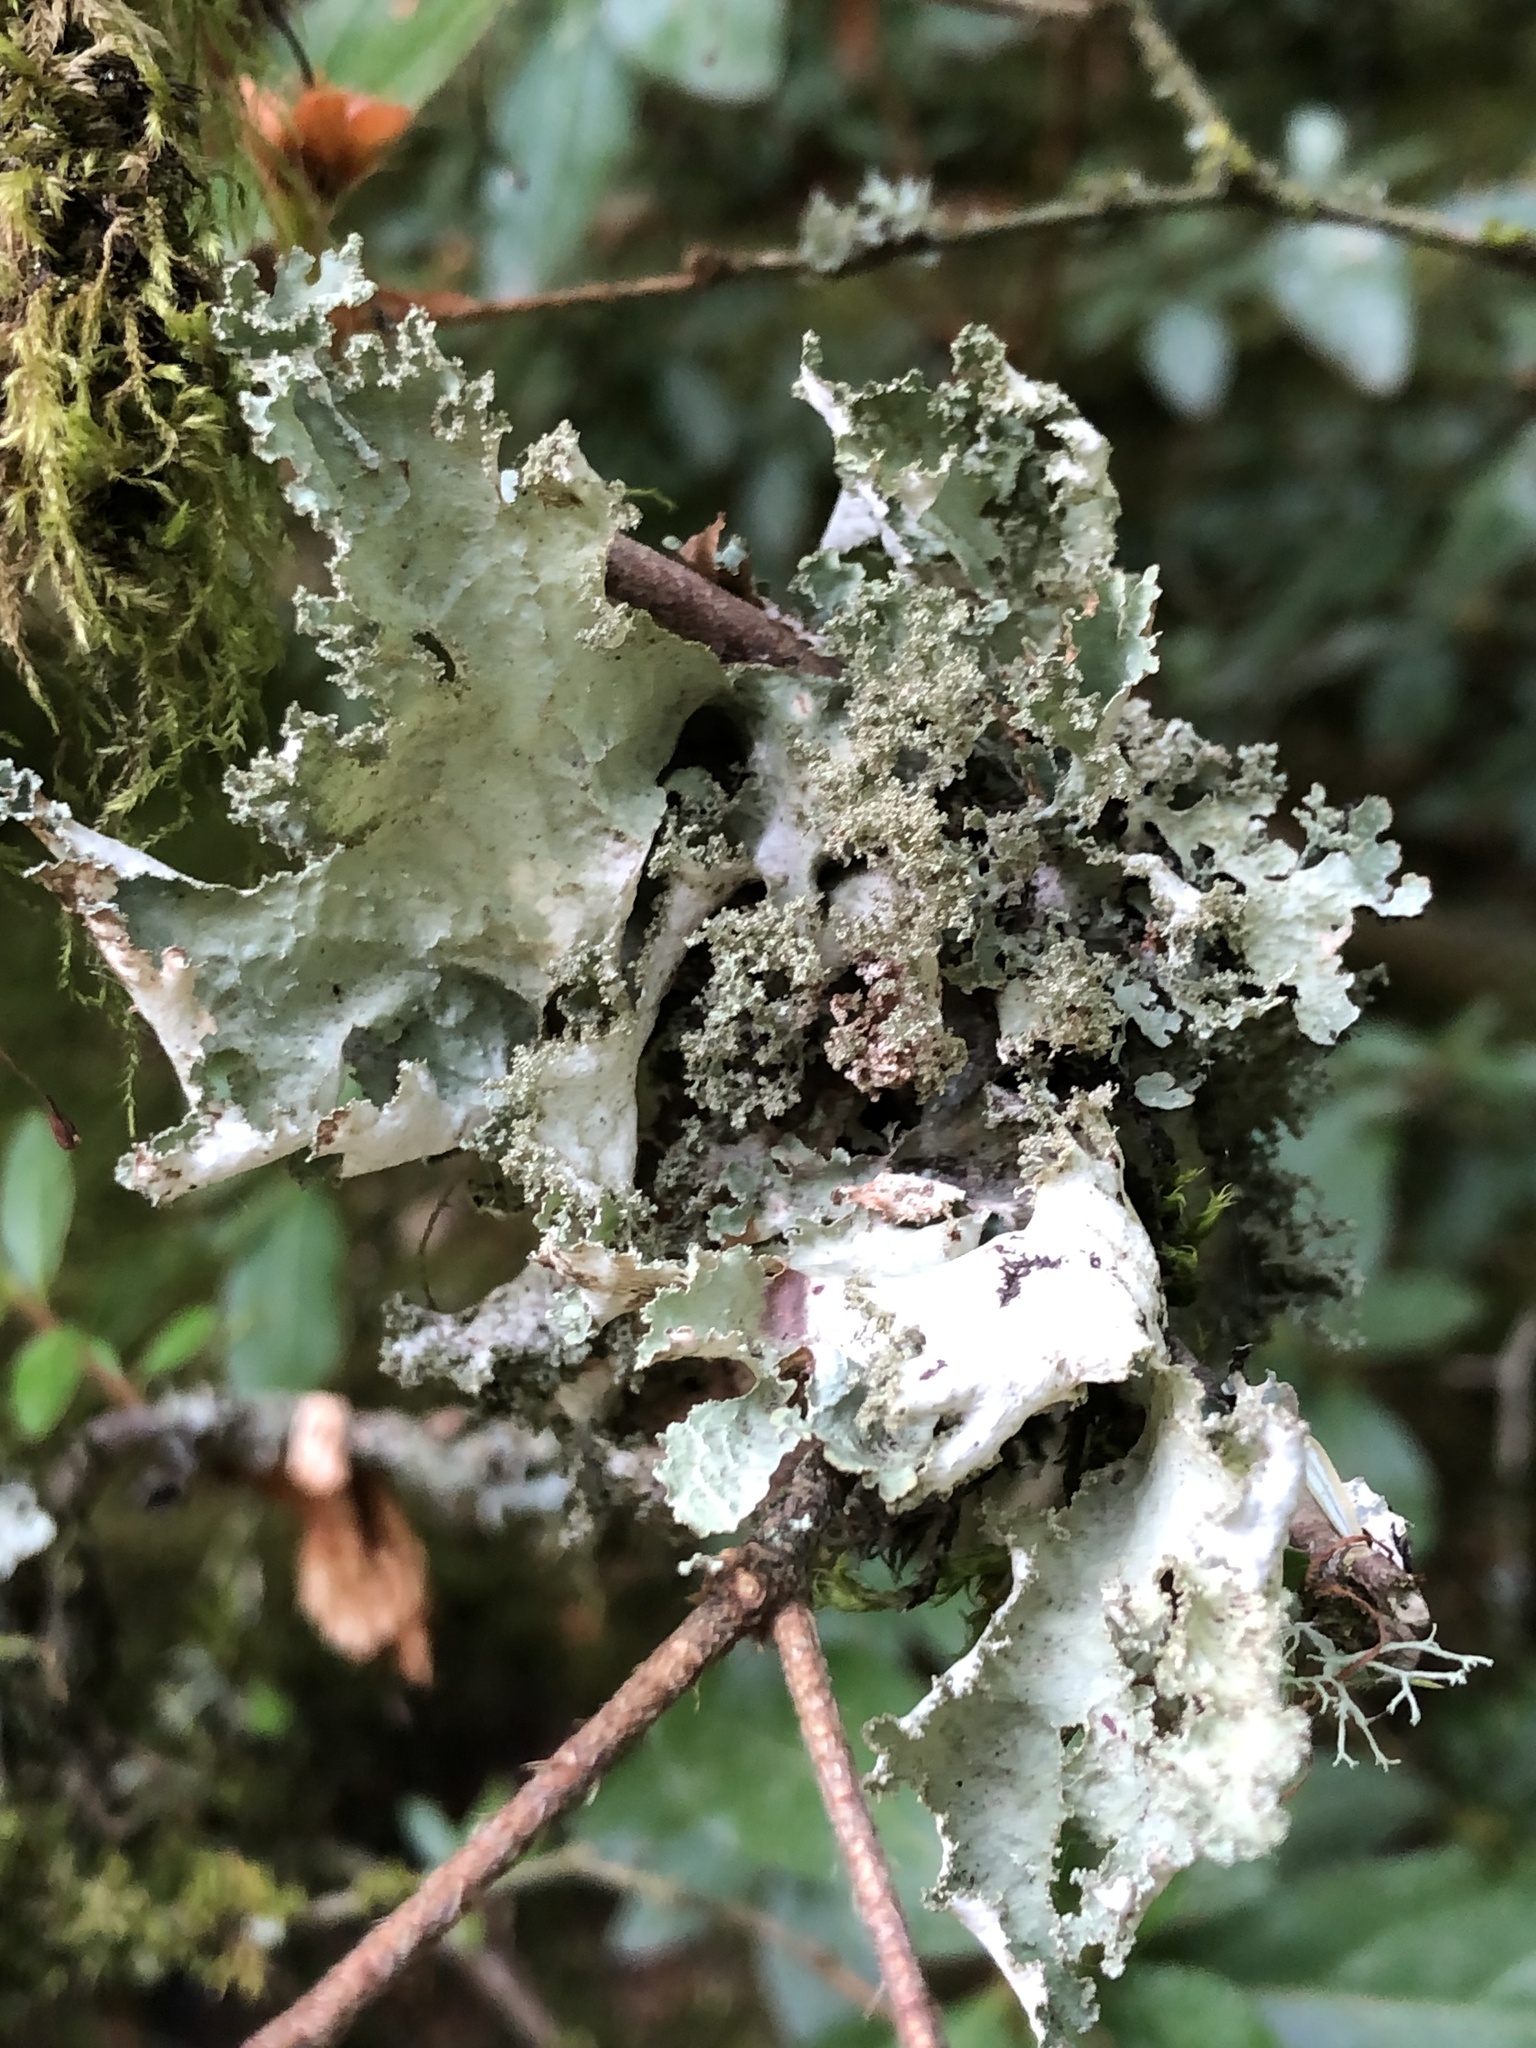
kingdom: Fungi
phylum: Ascomycota
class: Lecanoromycetes
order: Lecanorales
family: Parmeliaceae
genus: Platismatia
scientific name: Platismatia glauca
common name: Varied rag lichen
